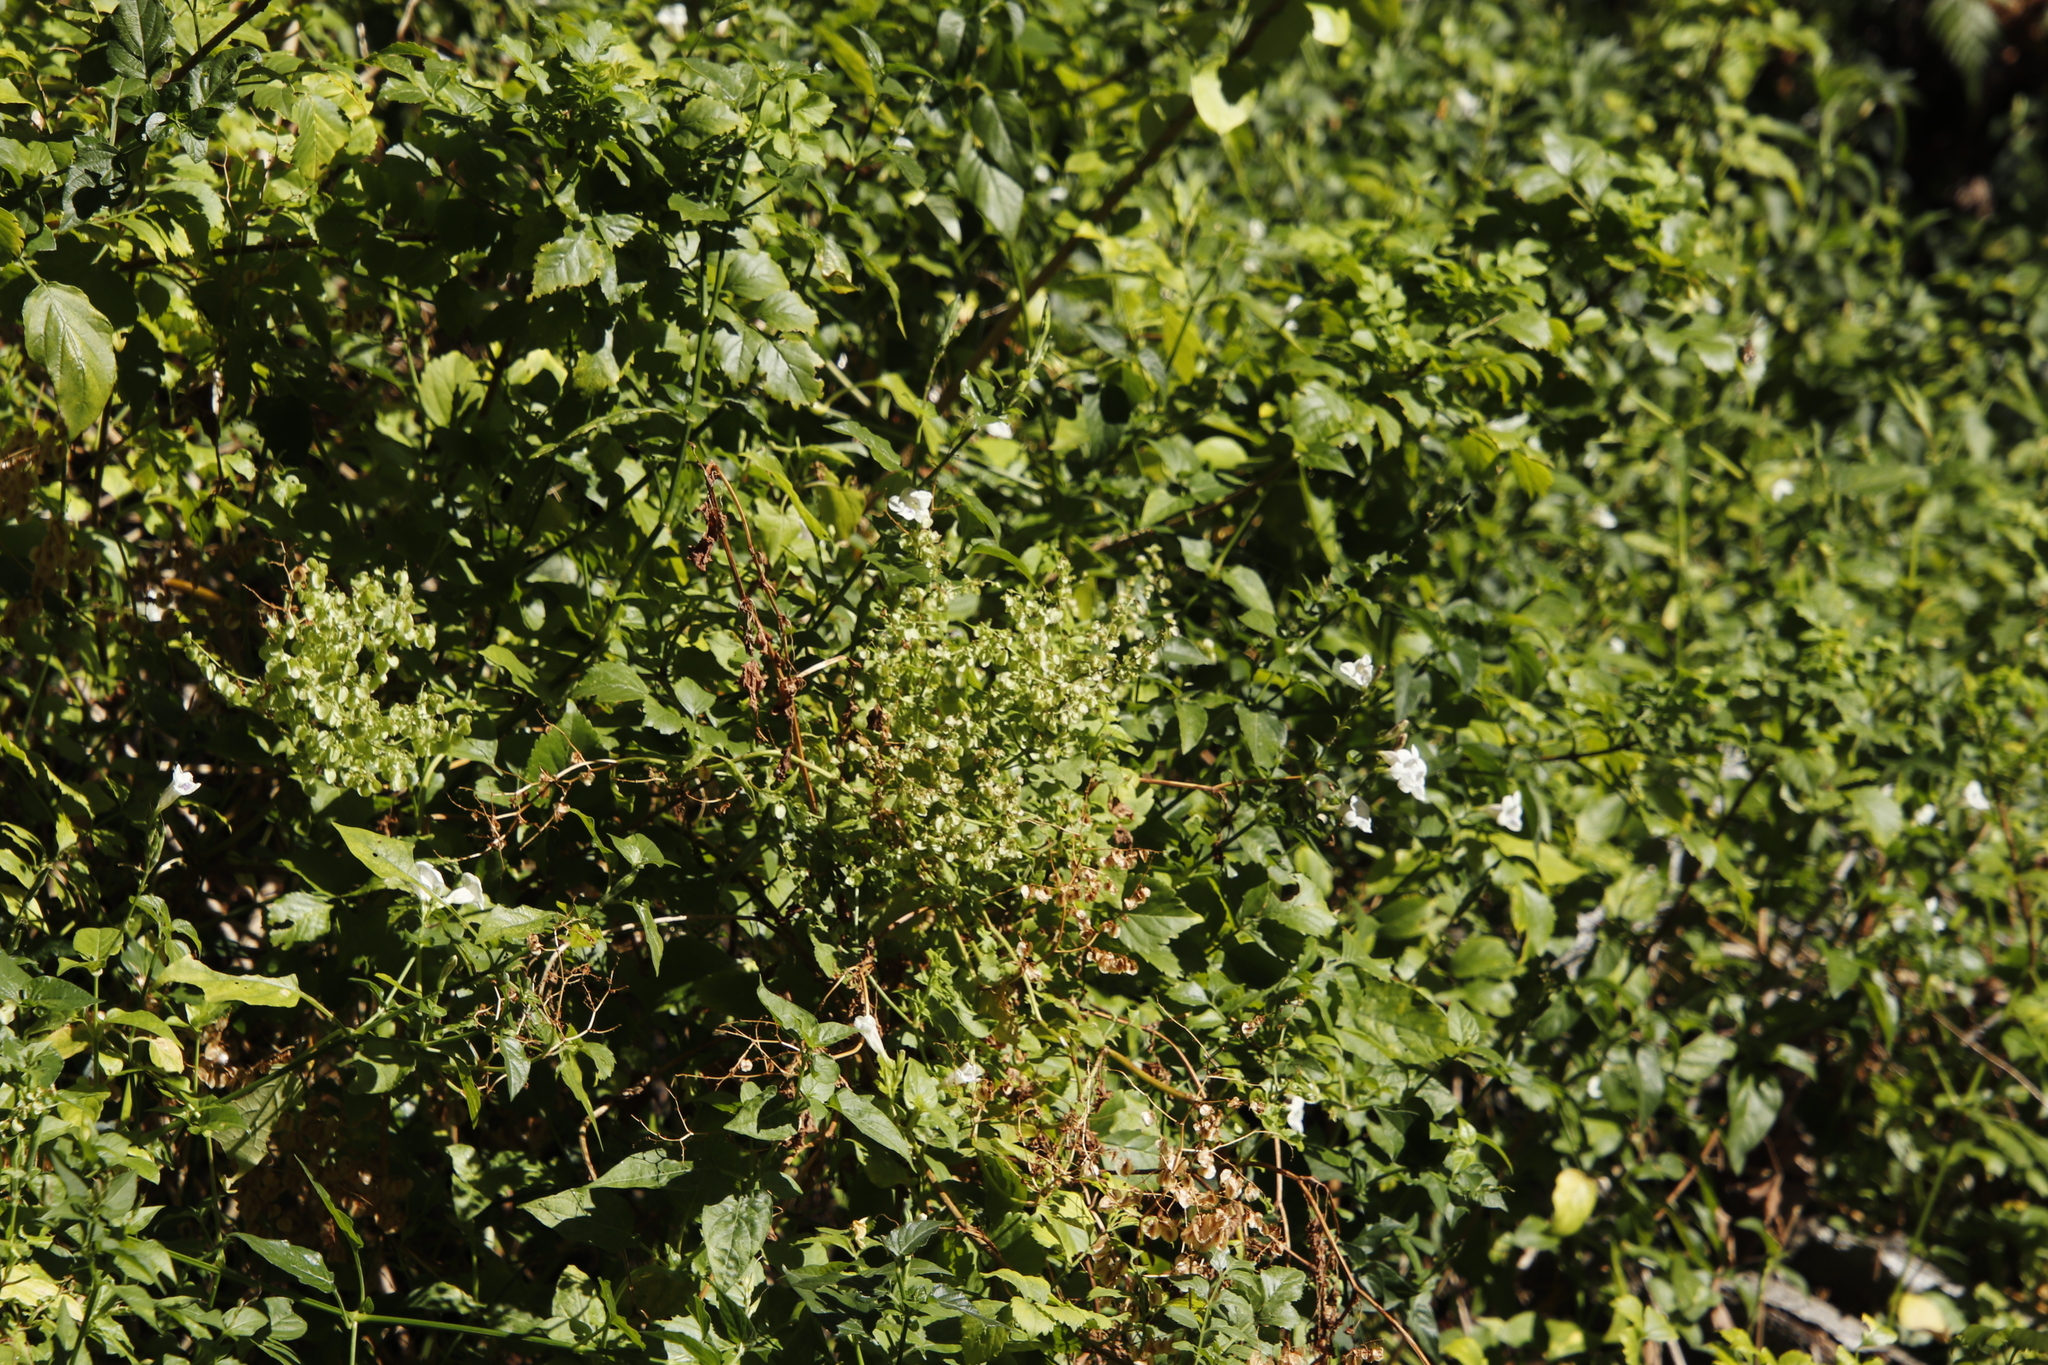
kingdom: Plantae
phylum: Tracheophyta
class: Magnoliopsida
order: Lamiales
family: Bignoniaceae
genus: Tecomaria
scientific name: Tecomaria capensis
